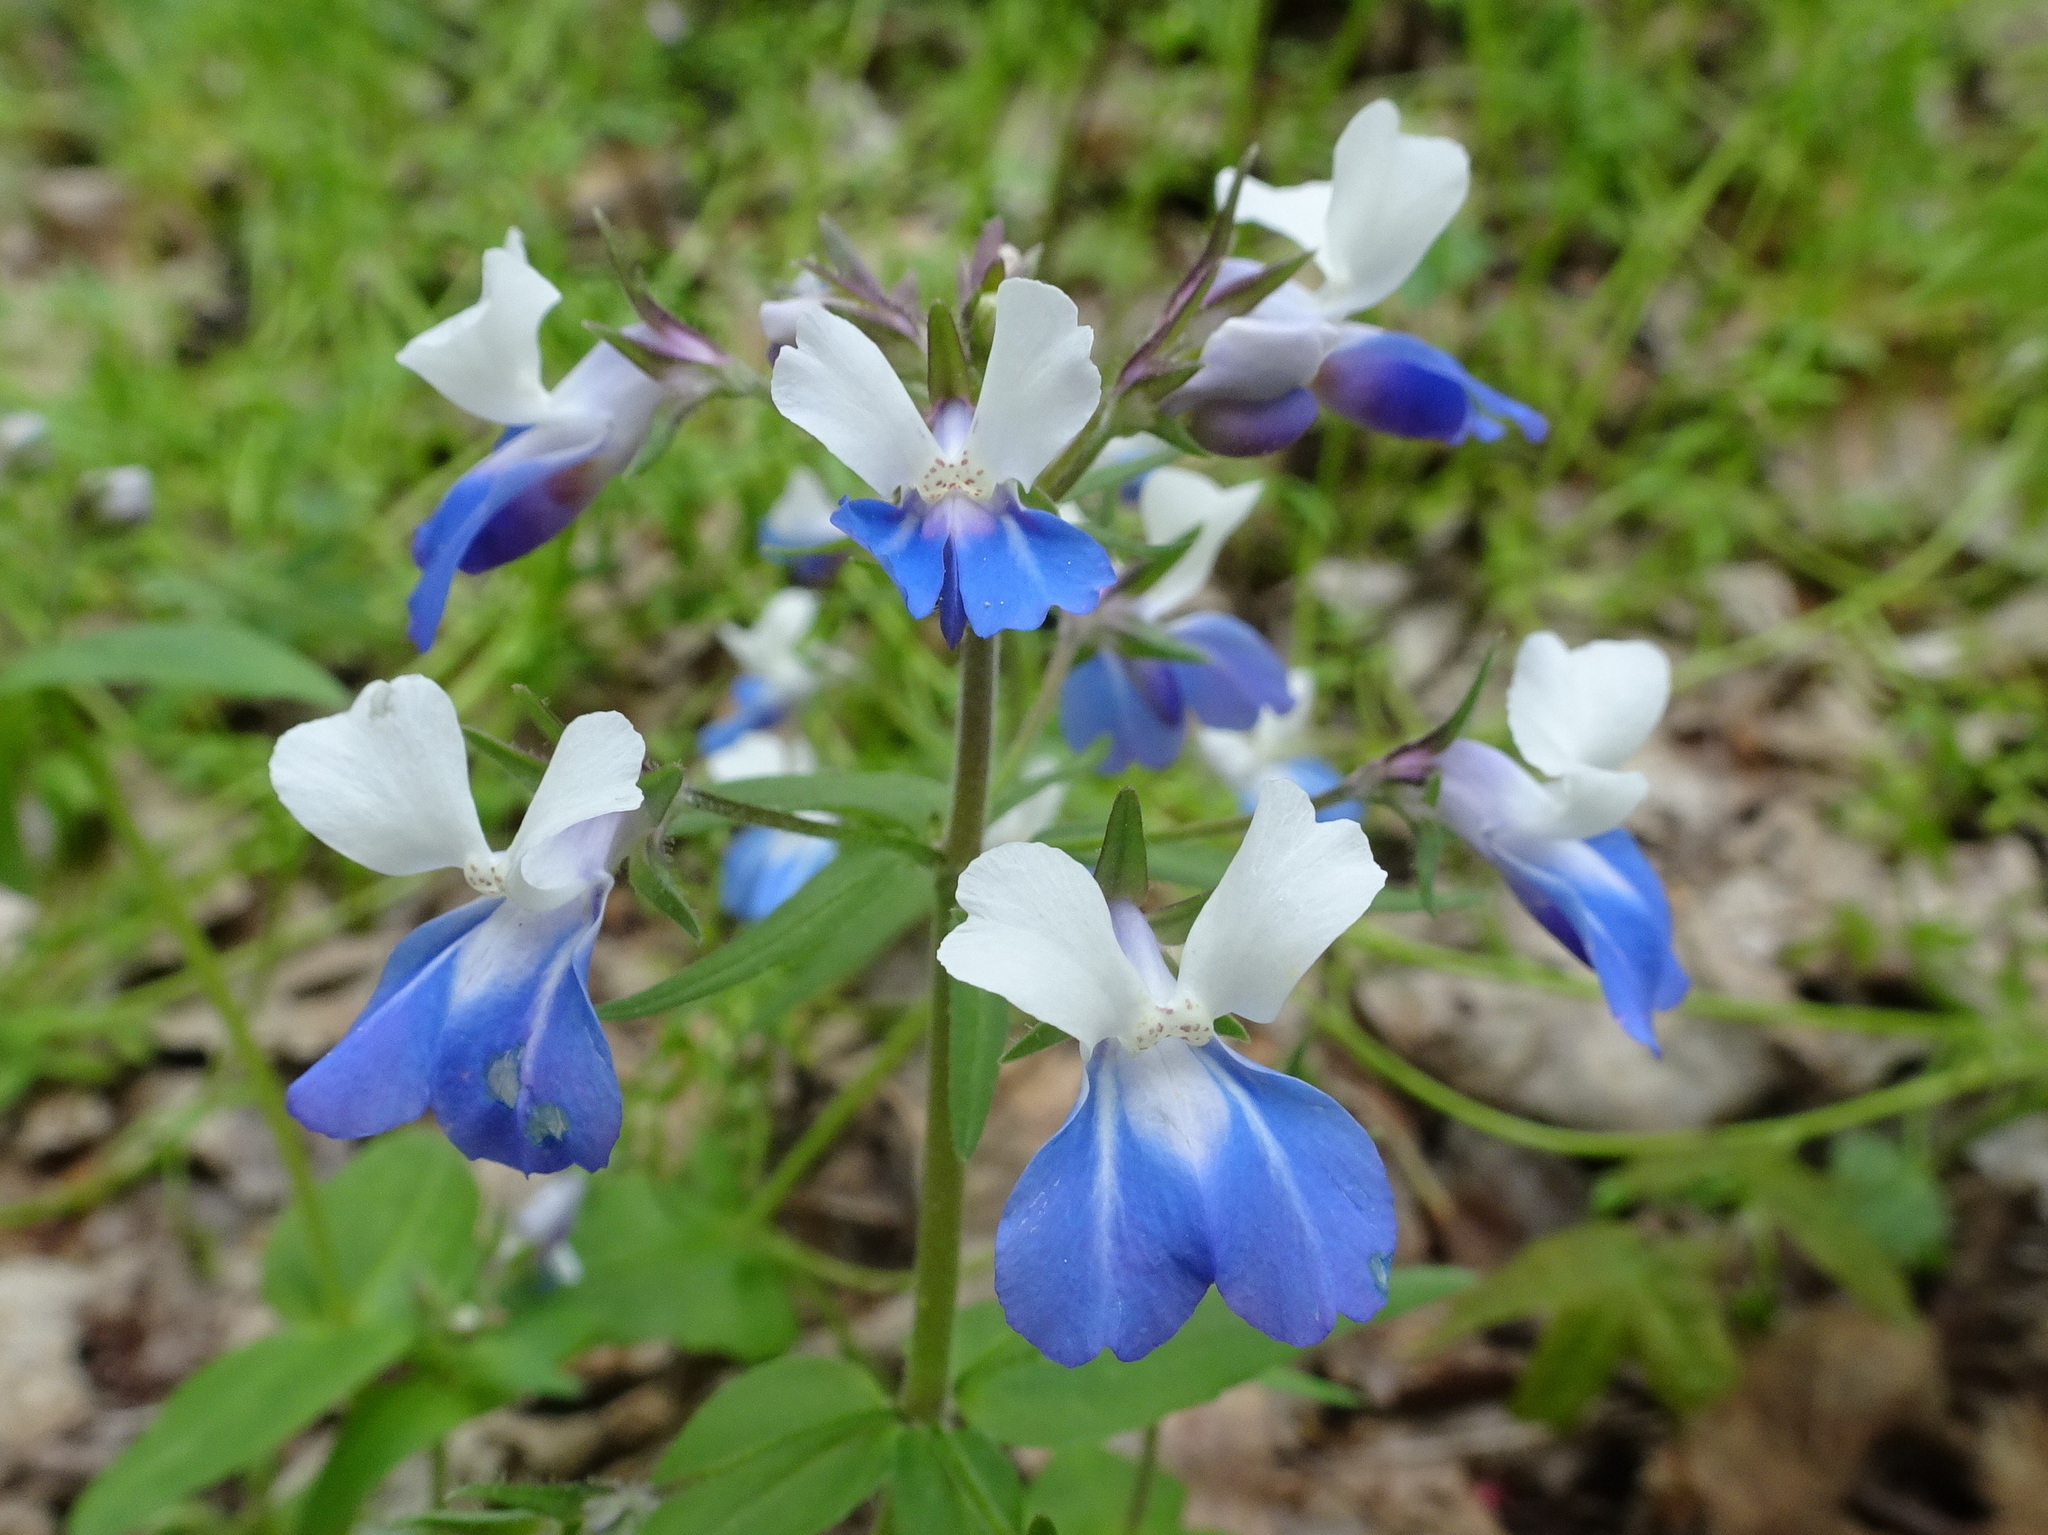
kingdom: Plantae
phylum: Tracheophyta
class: Magnoliopsida
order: Lamiales
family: Plantaginaceae
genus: Collinsia
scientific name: Collinsia verna
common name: Broad-leaved collinsia
